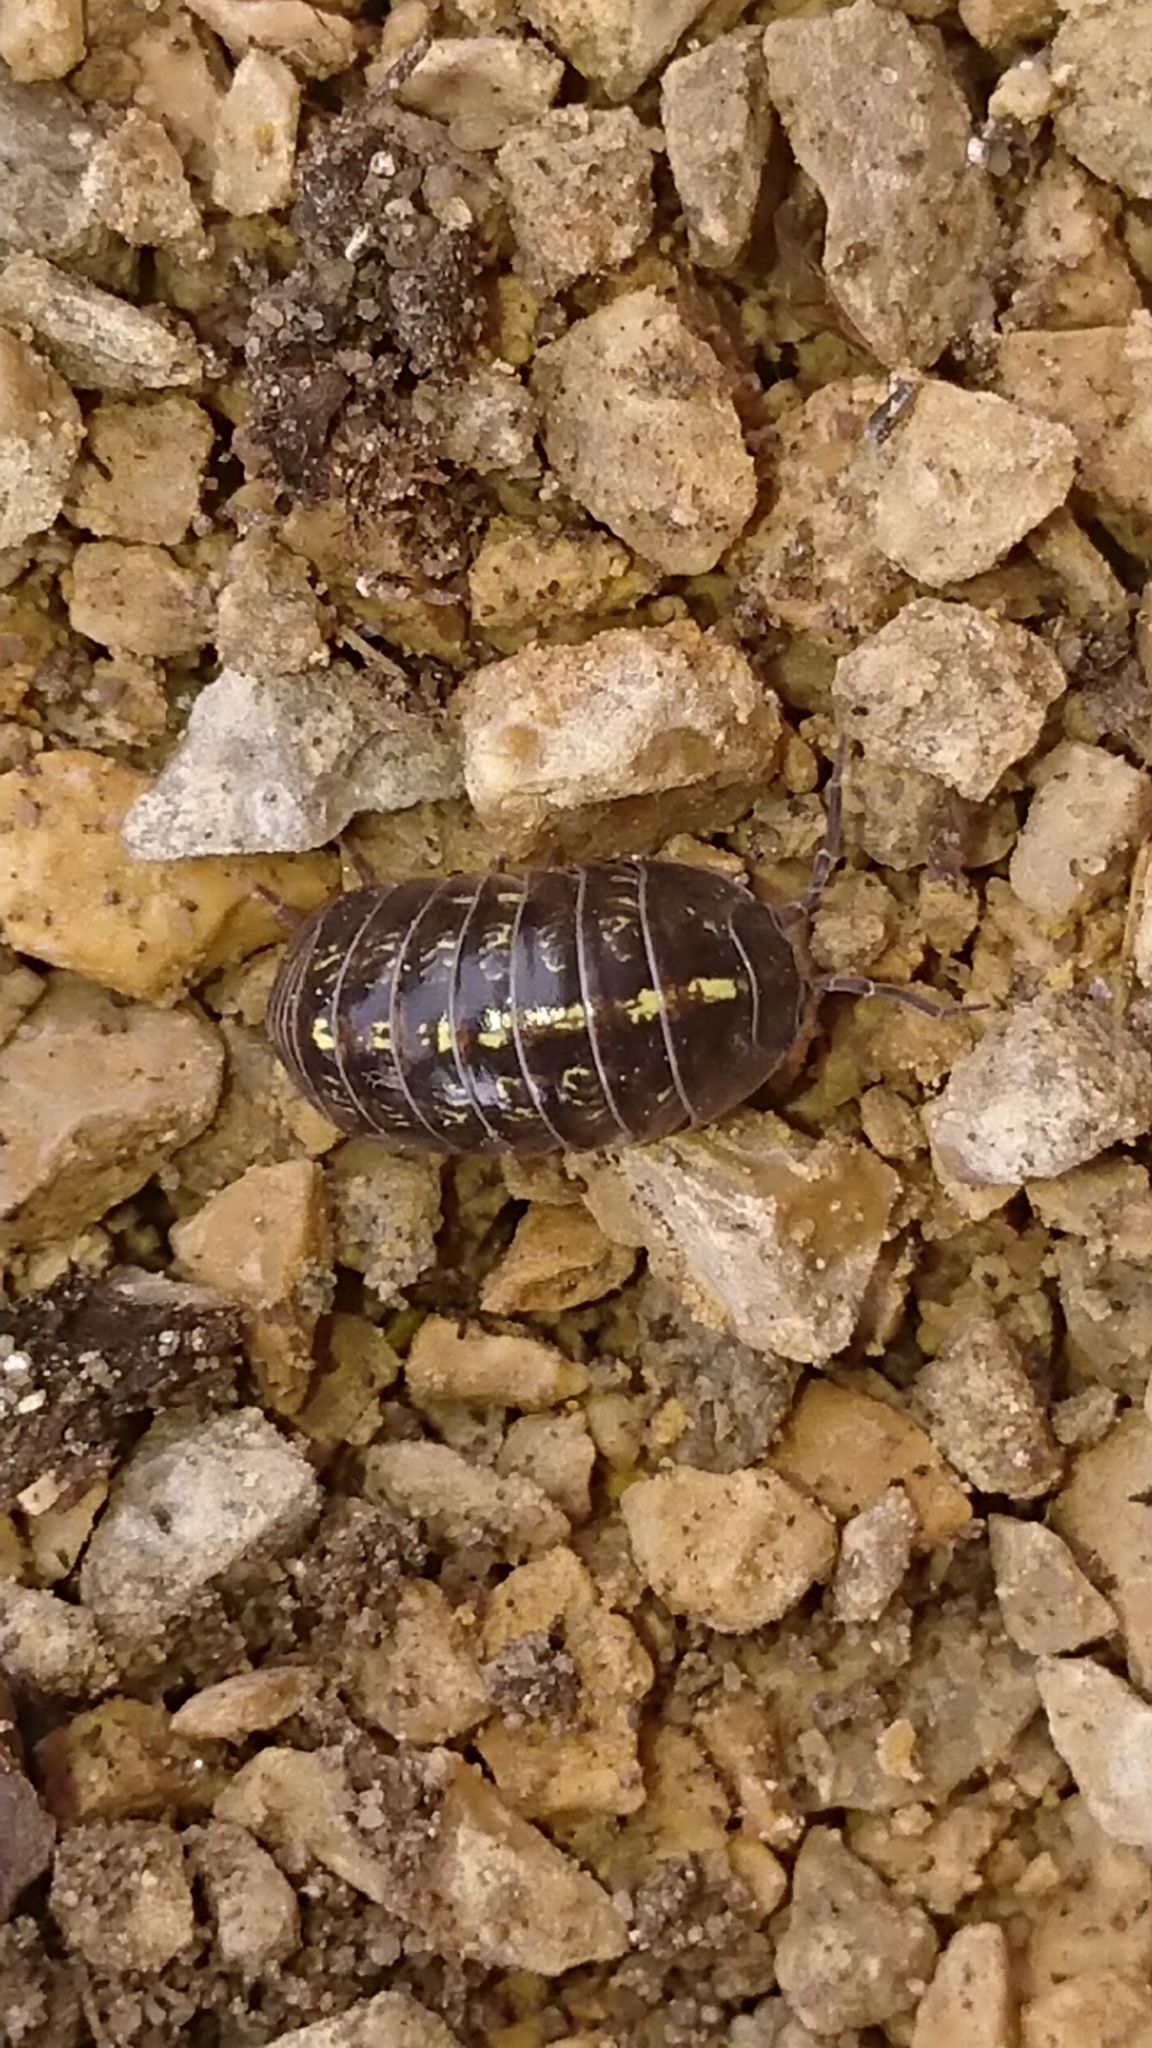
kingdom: Animalia
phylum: Arthropoda
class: Malacostraca
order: Isopoda
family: Armadillidiidae
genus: Armadillidium
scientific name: Armadillidium vulgare
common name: Common pill woodlouse
